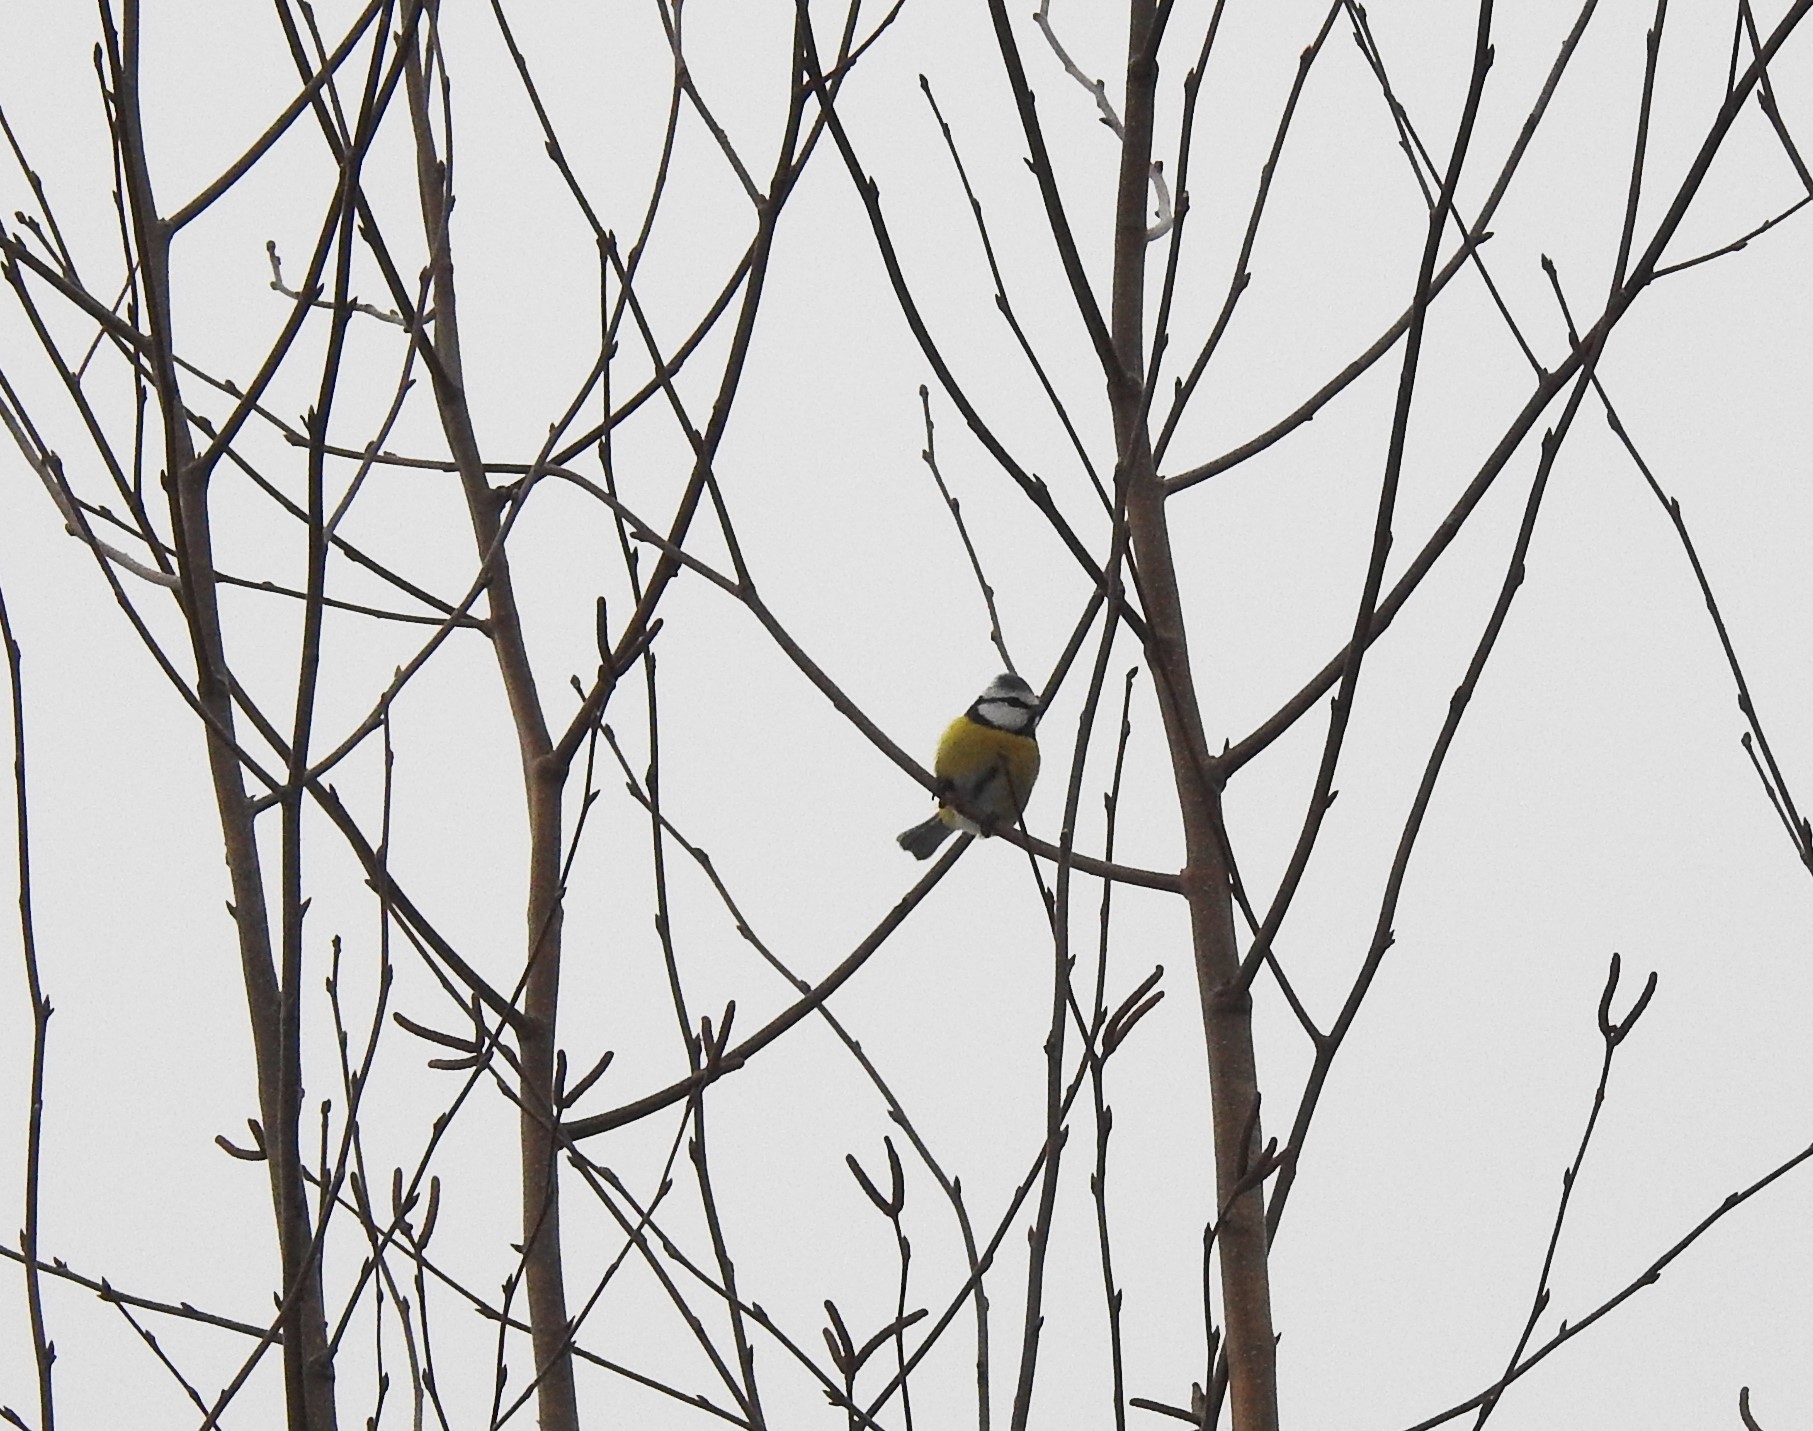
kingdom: Animalia
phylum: Chordata
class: Aves
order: Passeriformes
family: Paridae
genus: Cyanistes
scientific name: Cyanistes caeruleus
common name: Eurasian blue tit
